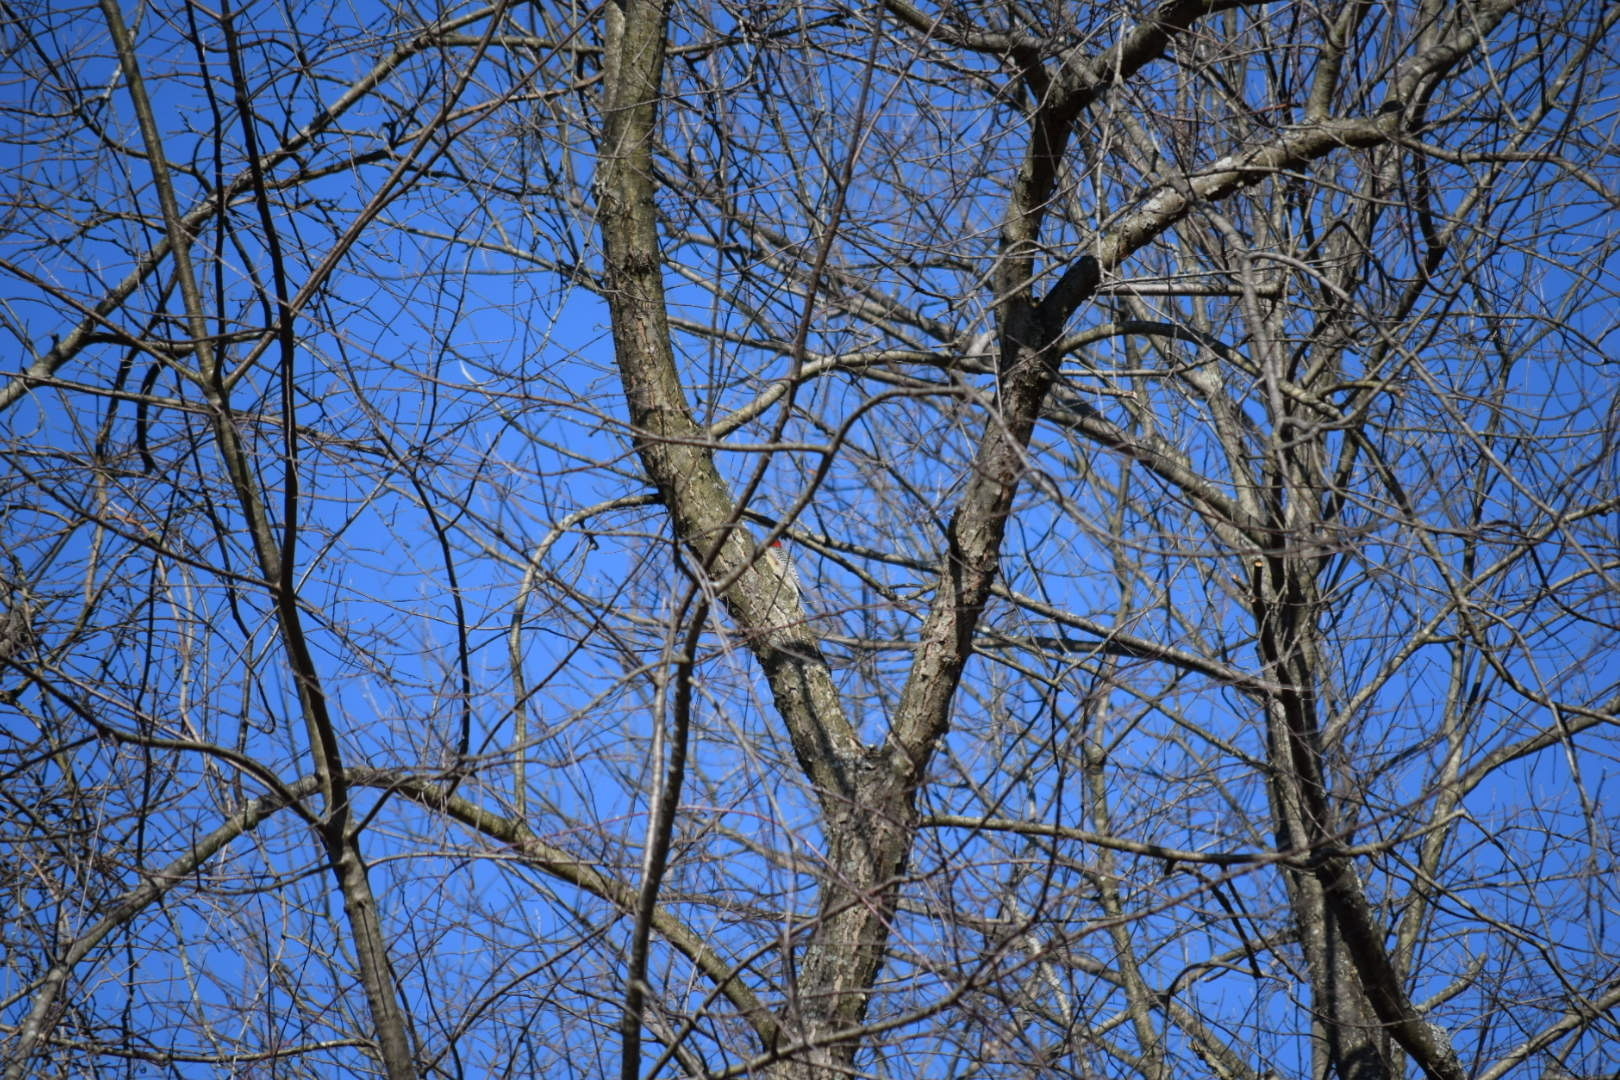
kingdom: Animalia
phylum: Chordata
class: Aves
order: Piciformes
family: Picidae
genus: Melanerpes
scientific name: Melanerpes carolinus
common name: Red-bellied woodpecker
